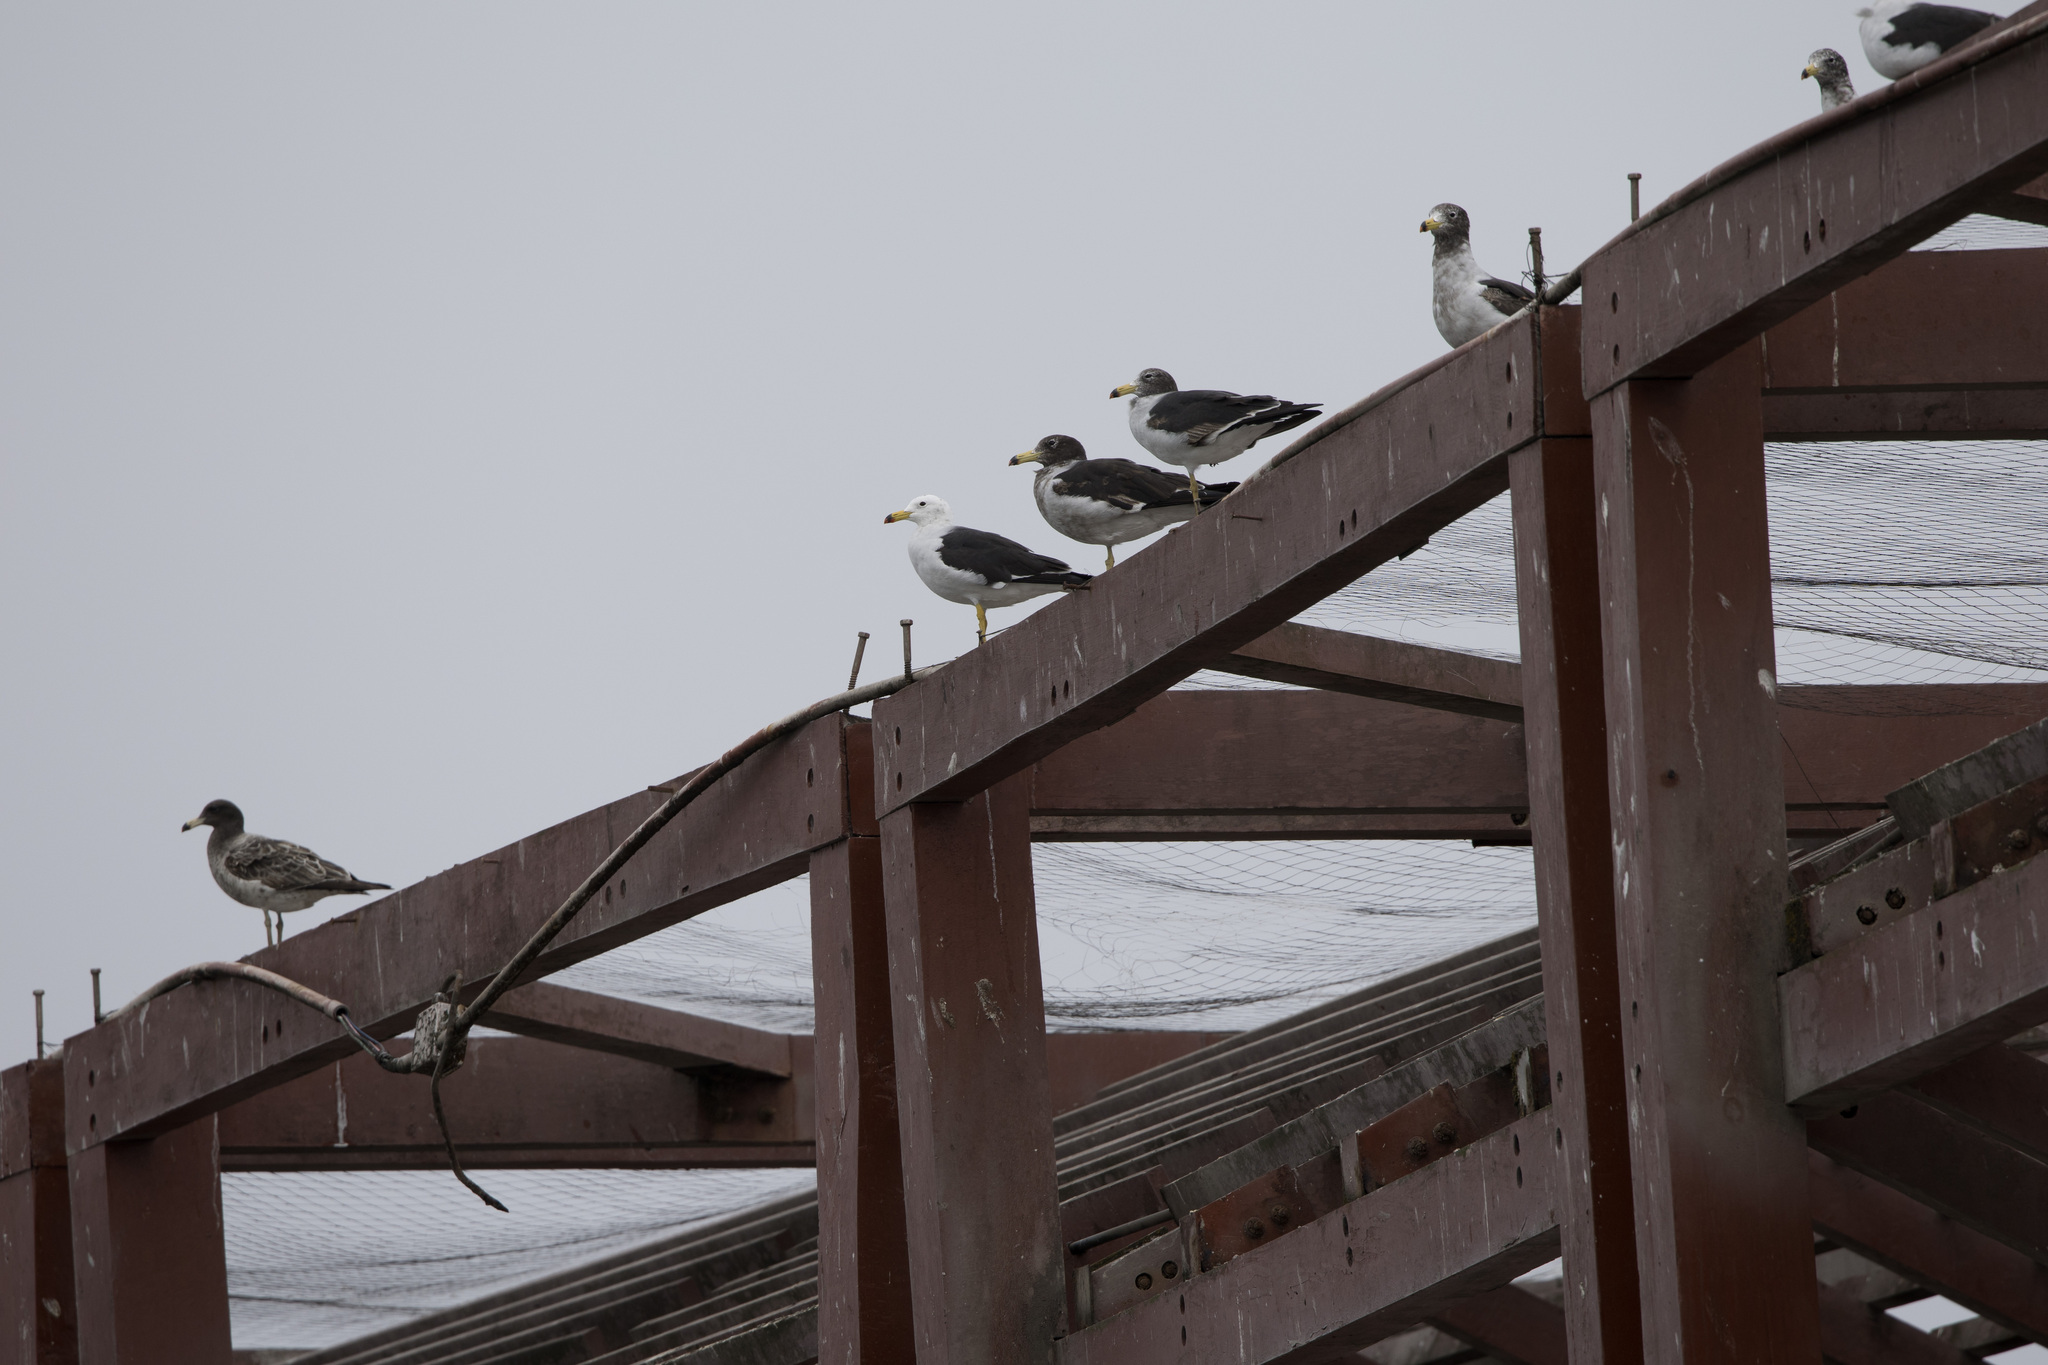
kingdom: Animalia
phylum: Chordata
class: Aves
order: Charadriiformes
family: Laridae
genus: Larus
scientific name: Larus belcheri
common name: Belcher's gull
